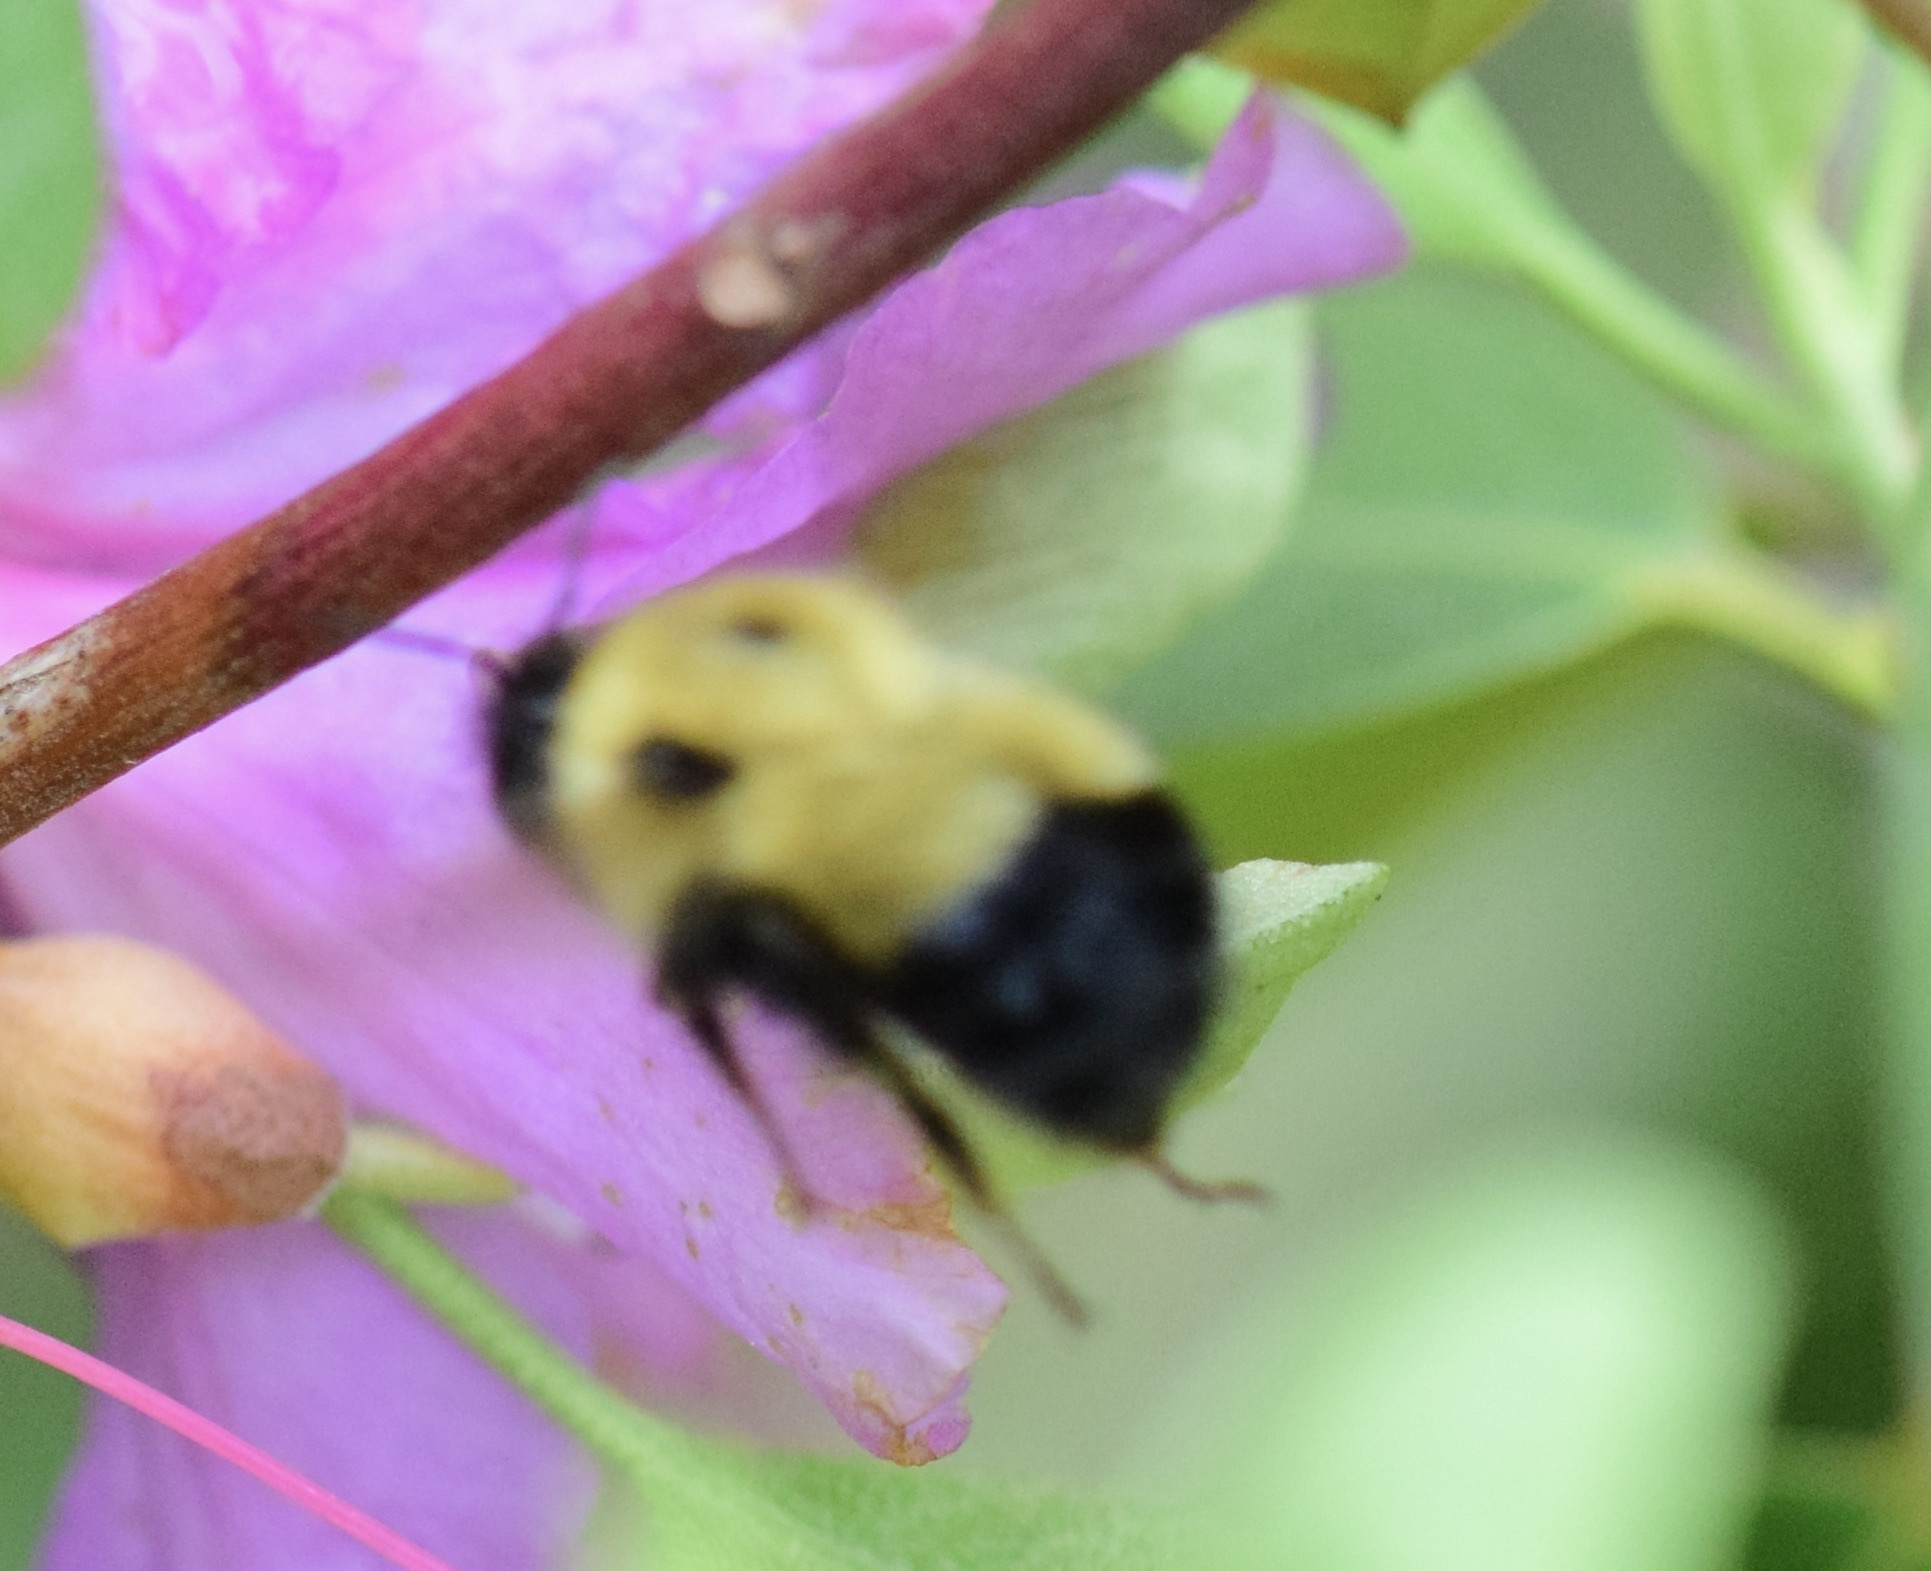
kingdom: Animalia
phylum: Arthropoda
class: Insecta
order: Hymenoptera
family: Apidae
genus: Pyrobombus
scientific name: Pyrobombus
